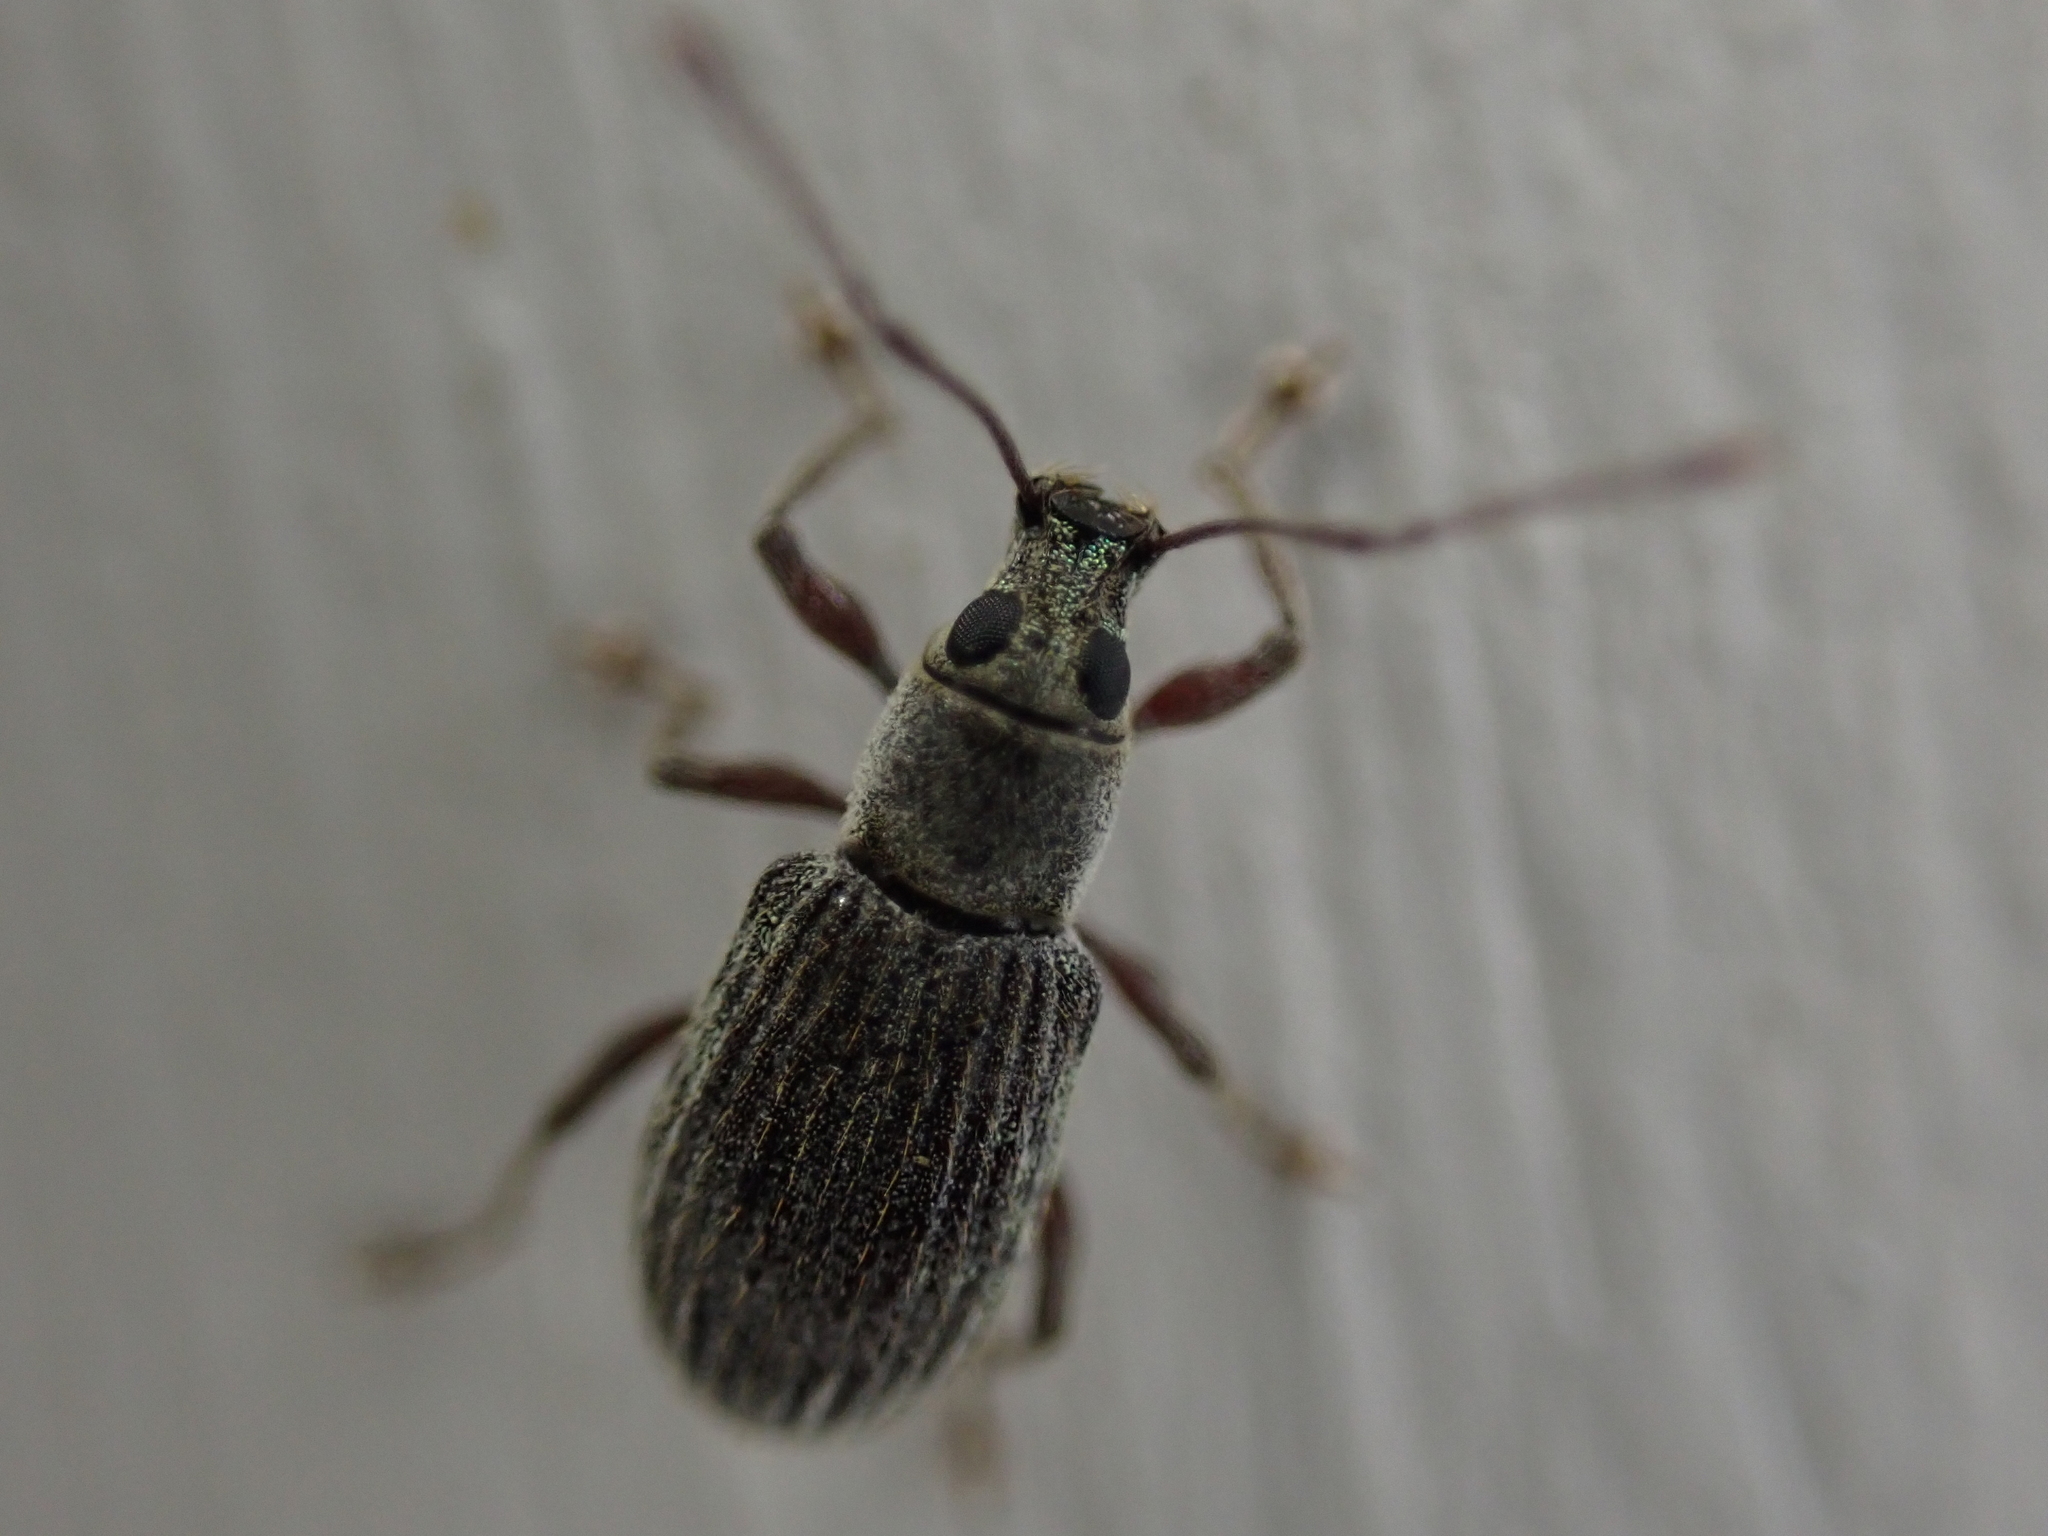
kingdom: Animalia
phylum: Arthropoda
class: Insecta
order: Coleoptera
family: Curculionidae
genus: Cyrtepistomus
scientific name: Cyrtepistomus castaneus
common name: Weevil
